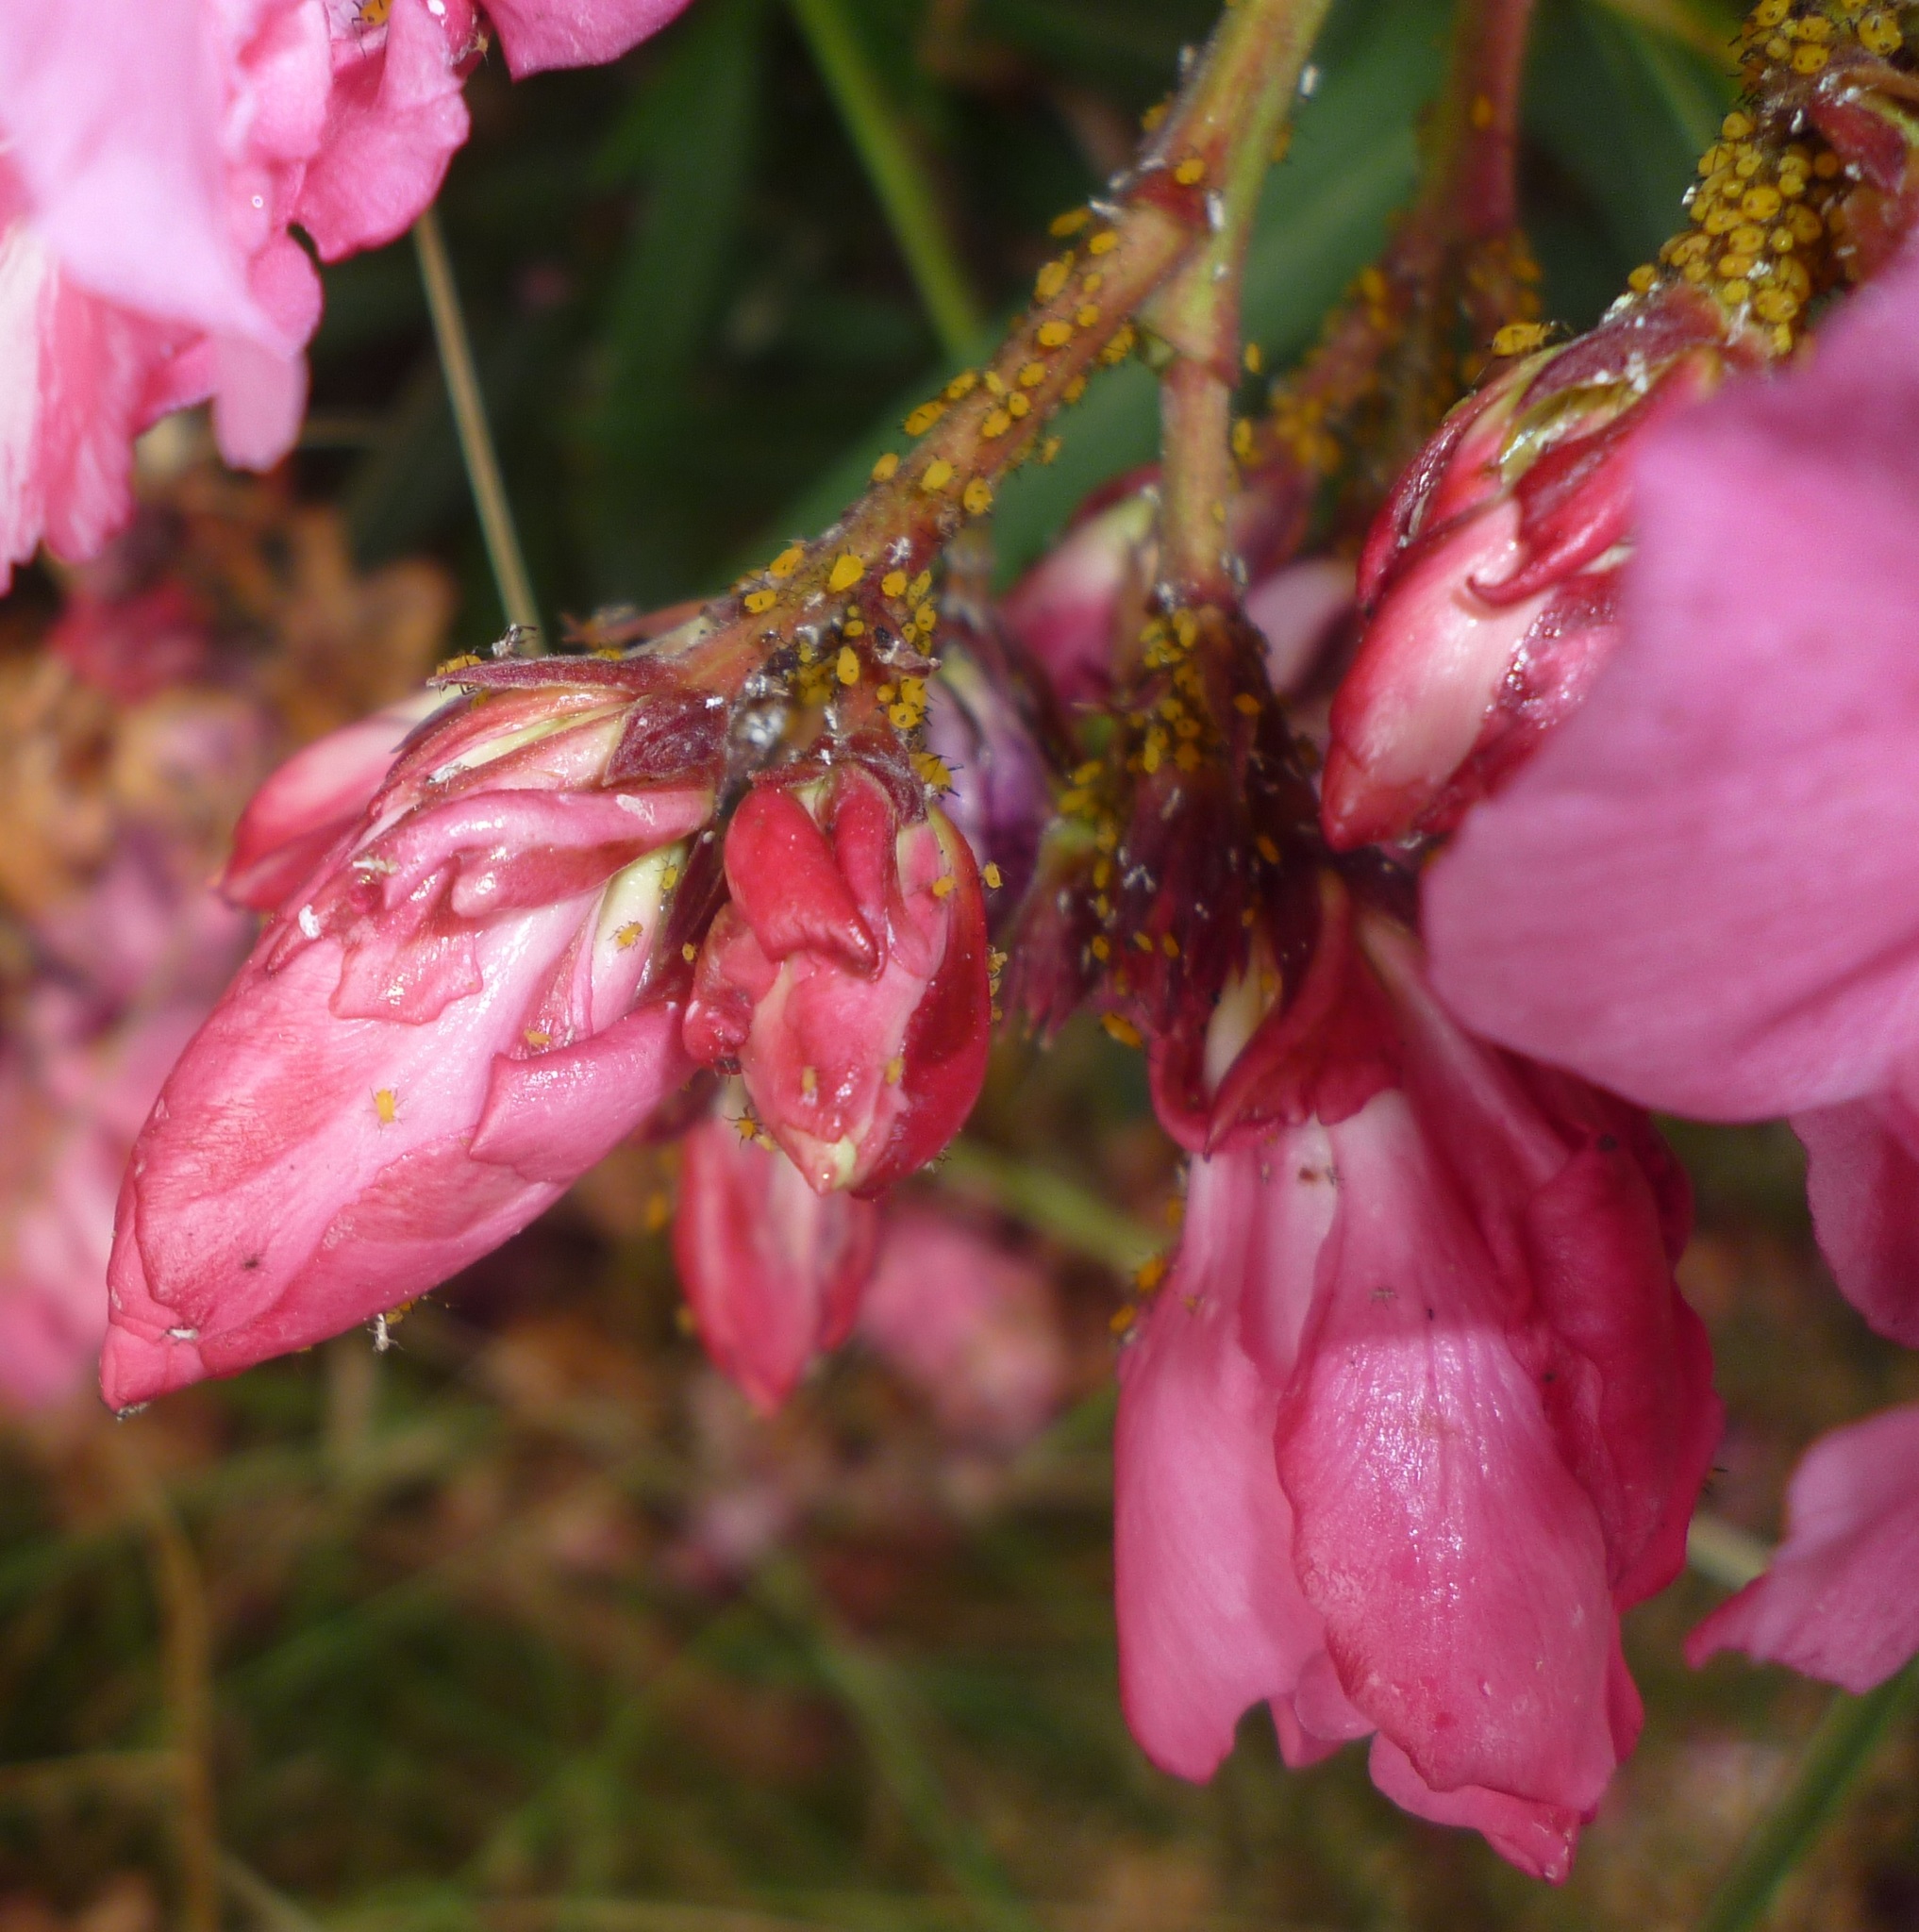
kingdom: Animalia
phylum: Arthropoda
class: Insecta
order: Hemiptera
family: Aphididae
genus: Aphis
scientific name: Aphis nerii
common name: Oleander aphid
